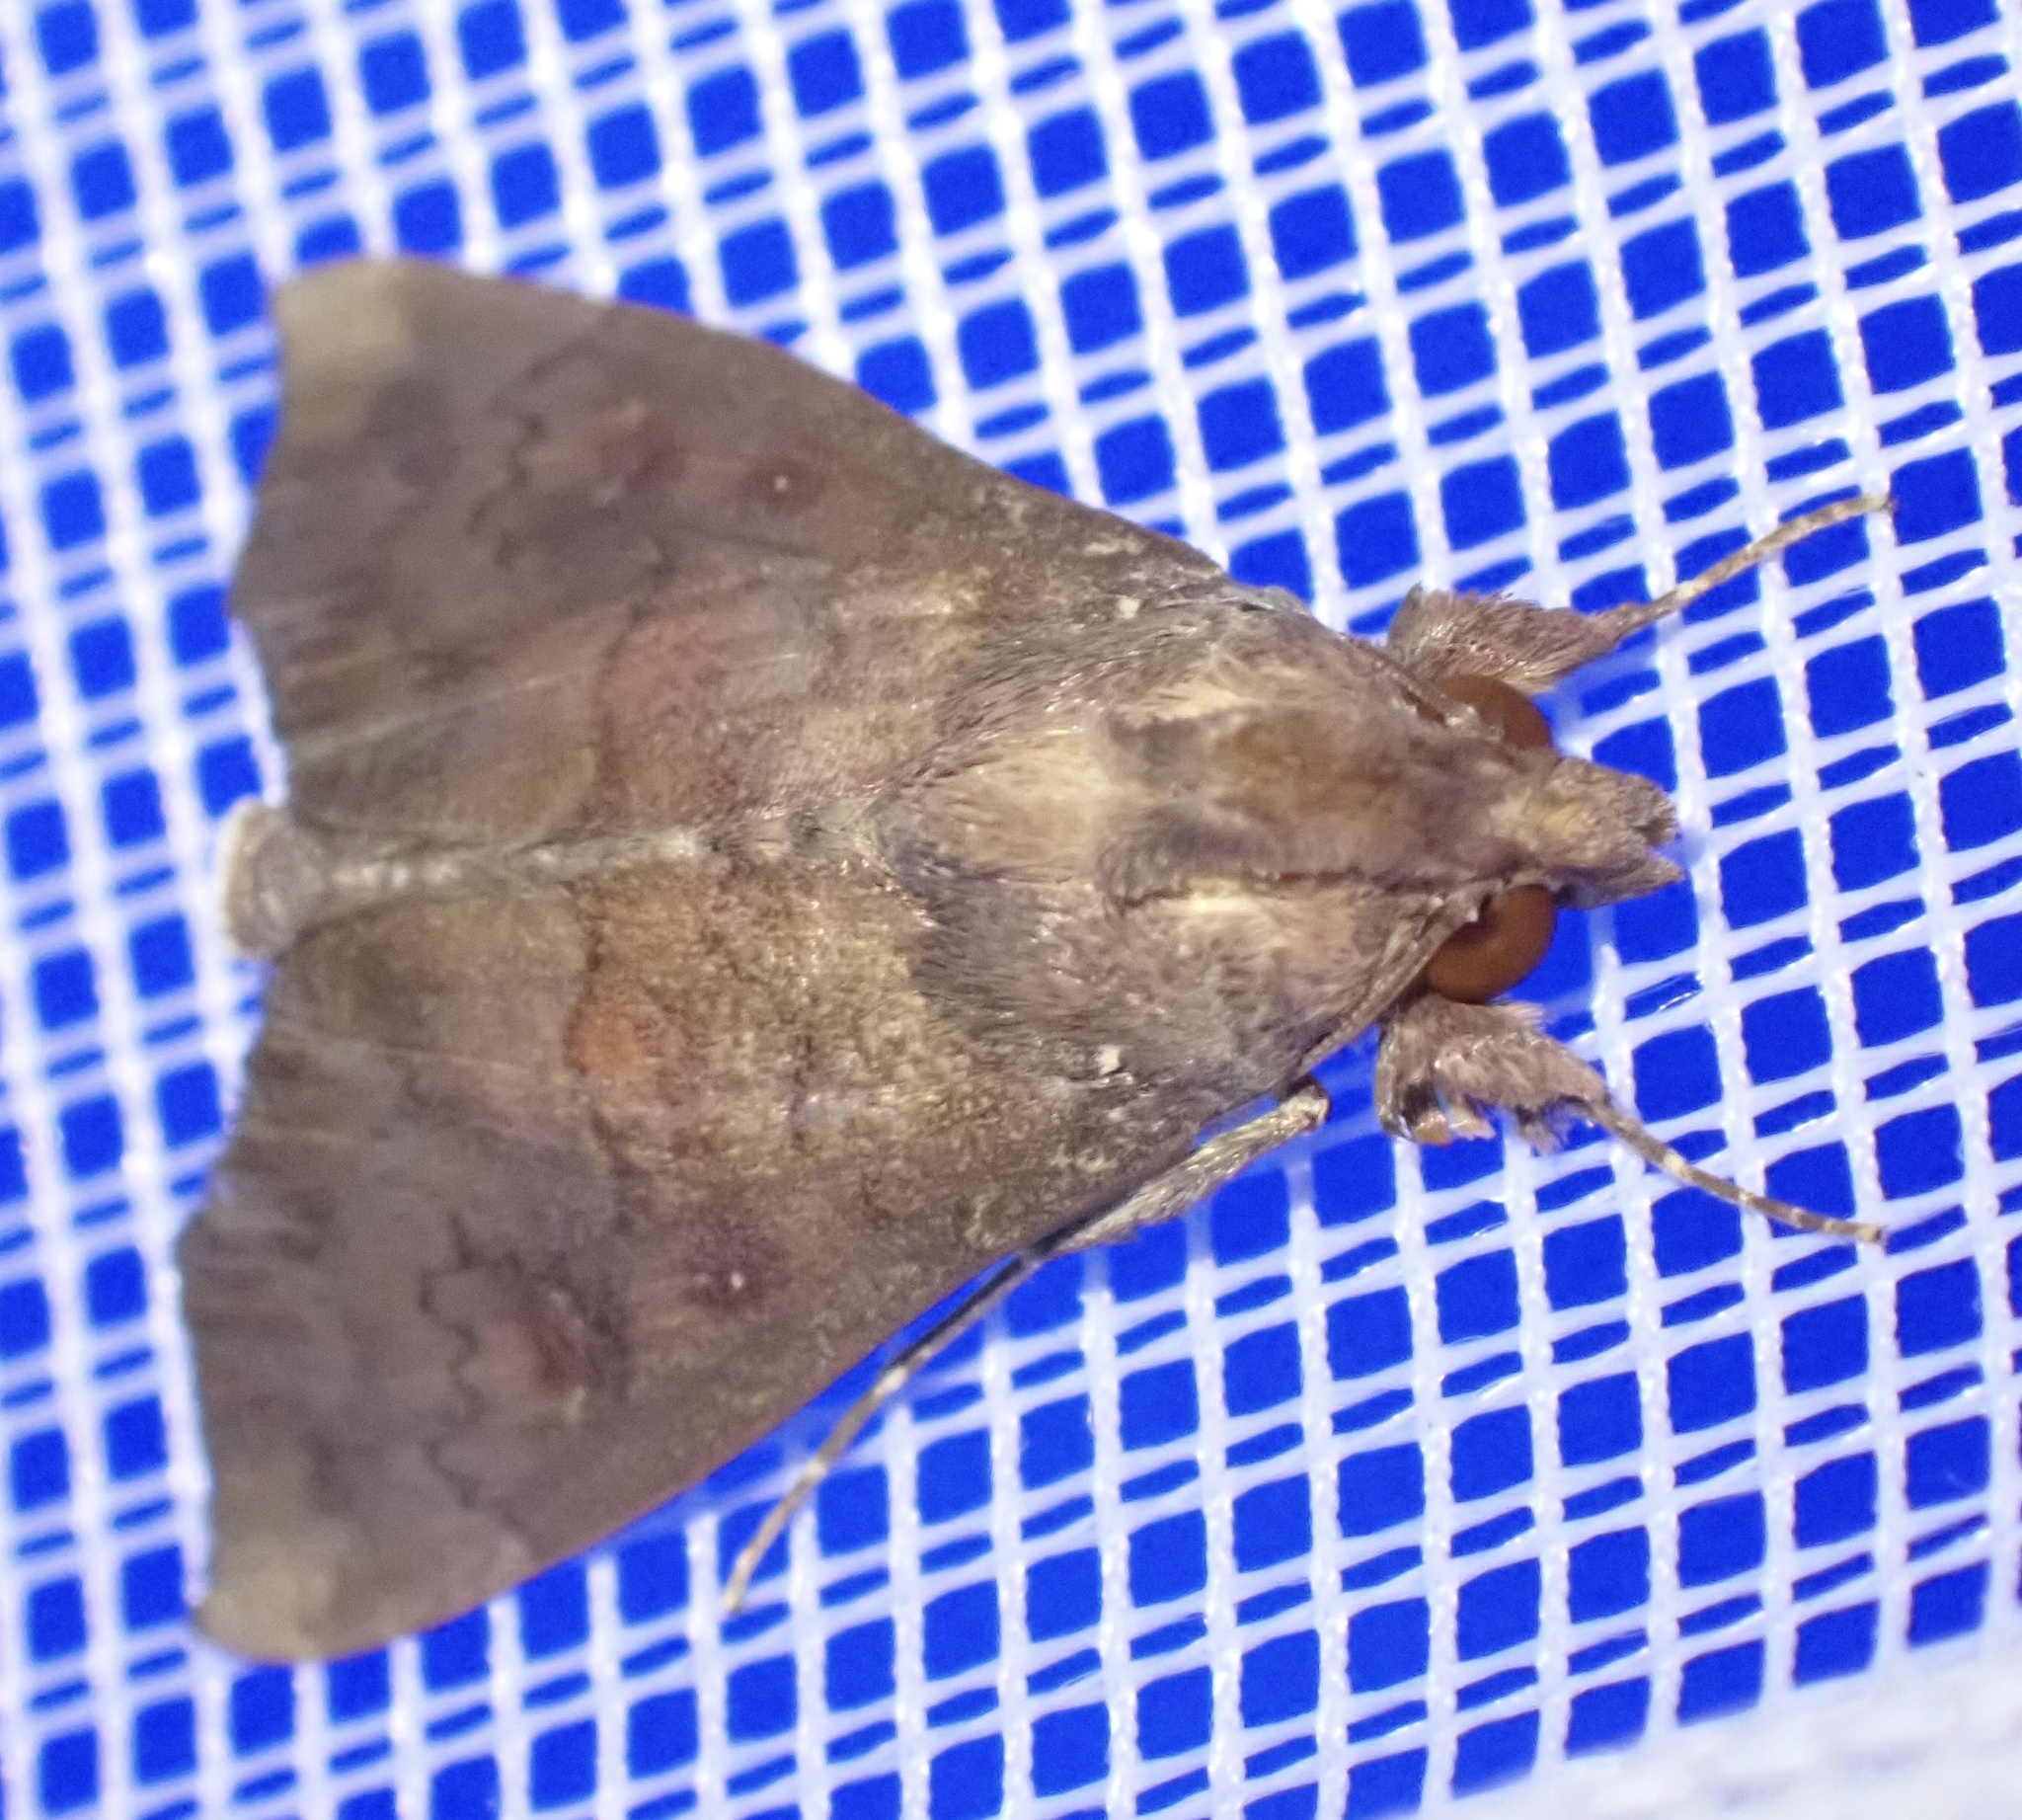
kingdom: Animalia
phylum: Arthropoda
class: Insecta
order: Lepidoptera
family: Erebidae
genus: Anomis
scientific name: Anomis leona
